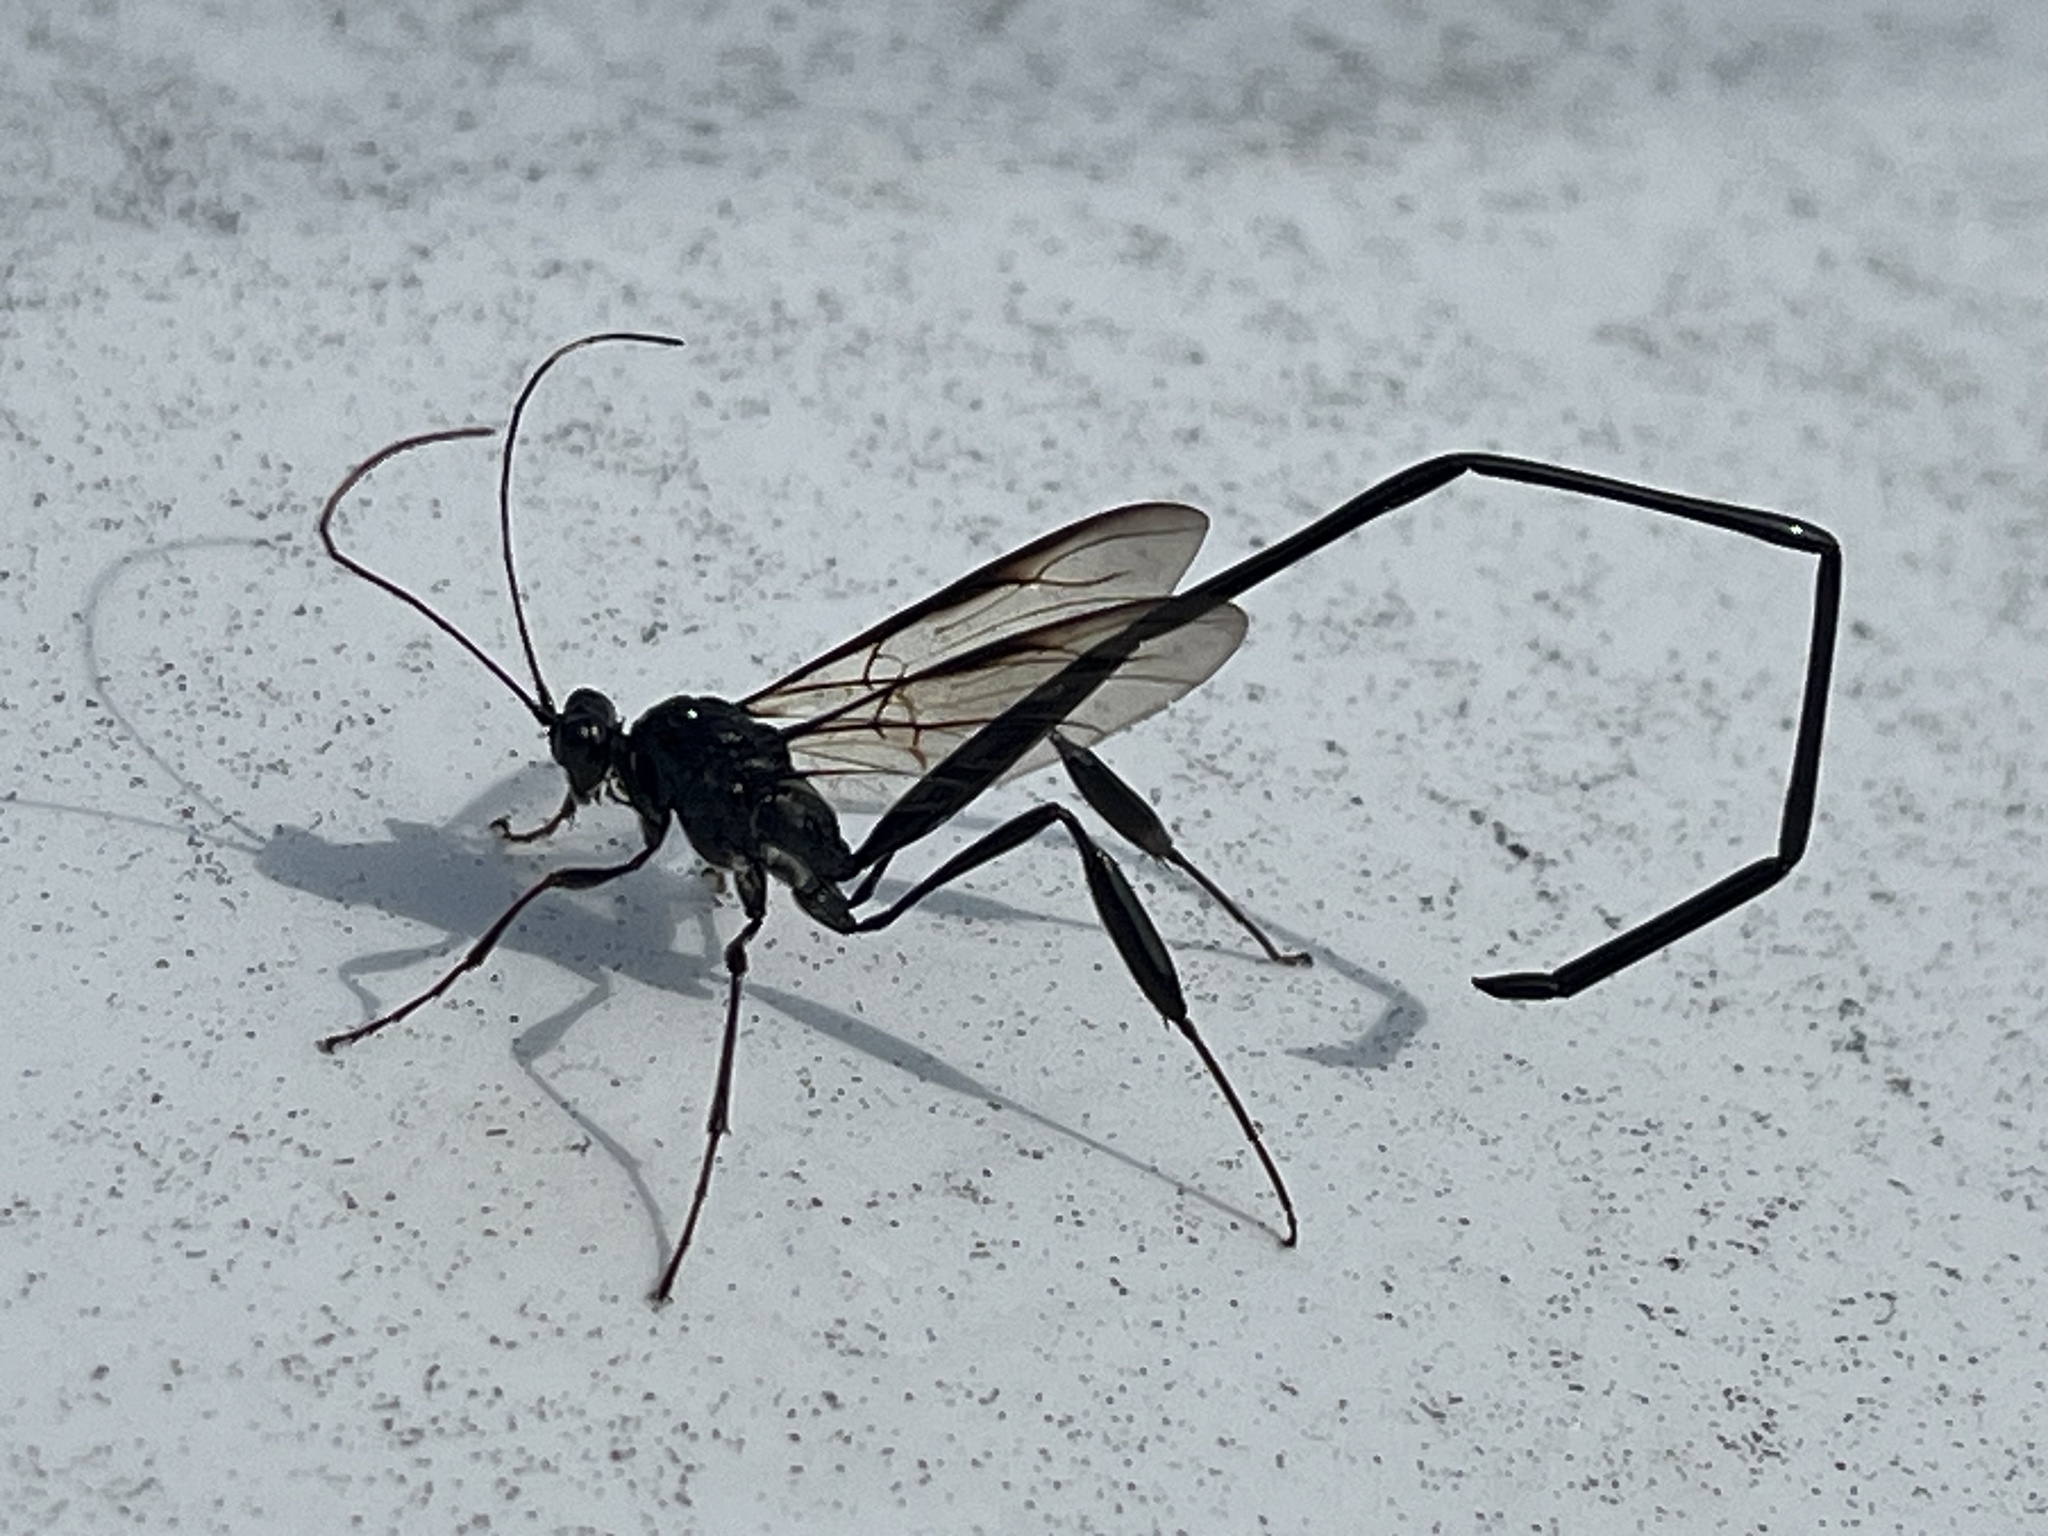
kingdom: Animalia
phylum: Arthropoda
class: Insecta
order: Hymenoptera
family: Pelecinidae
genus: Pelecinus
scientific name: Pelecinus polyturator
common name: American pelecinid wasp
